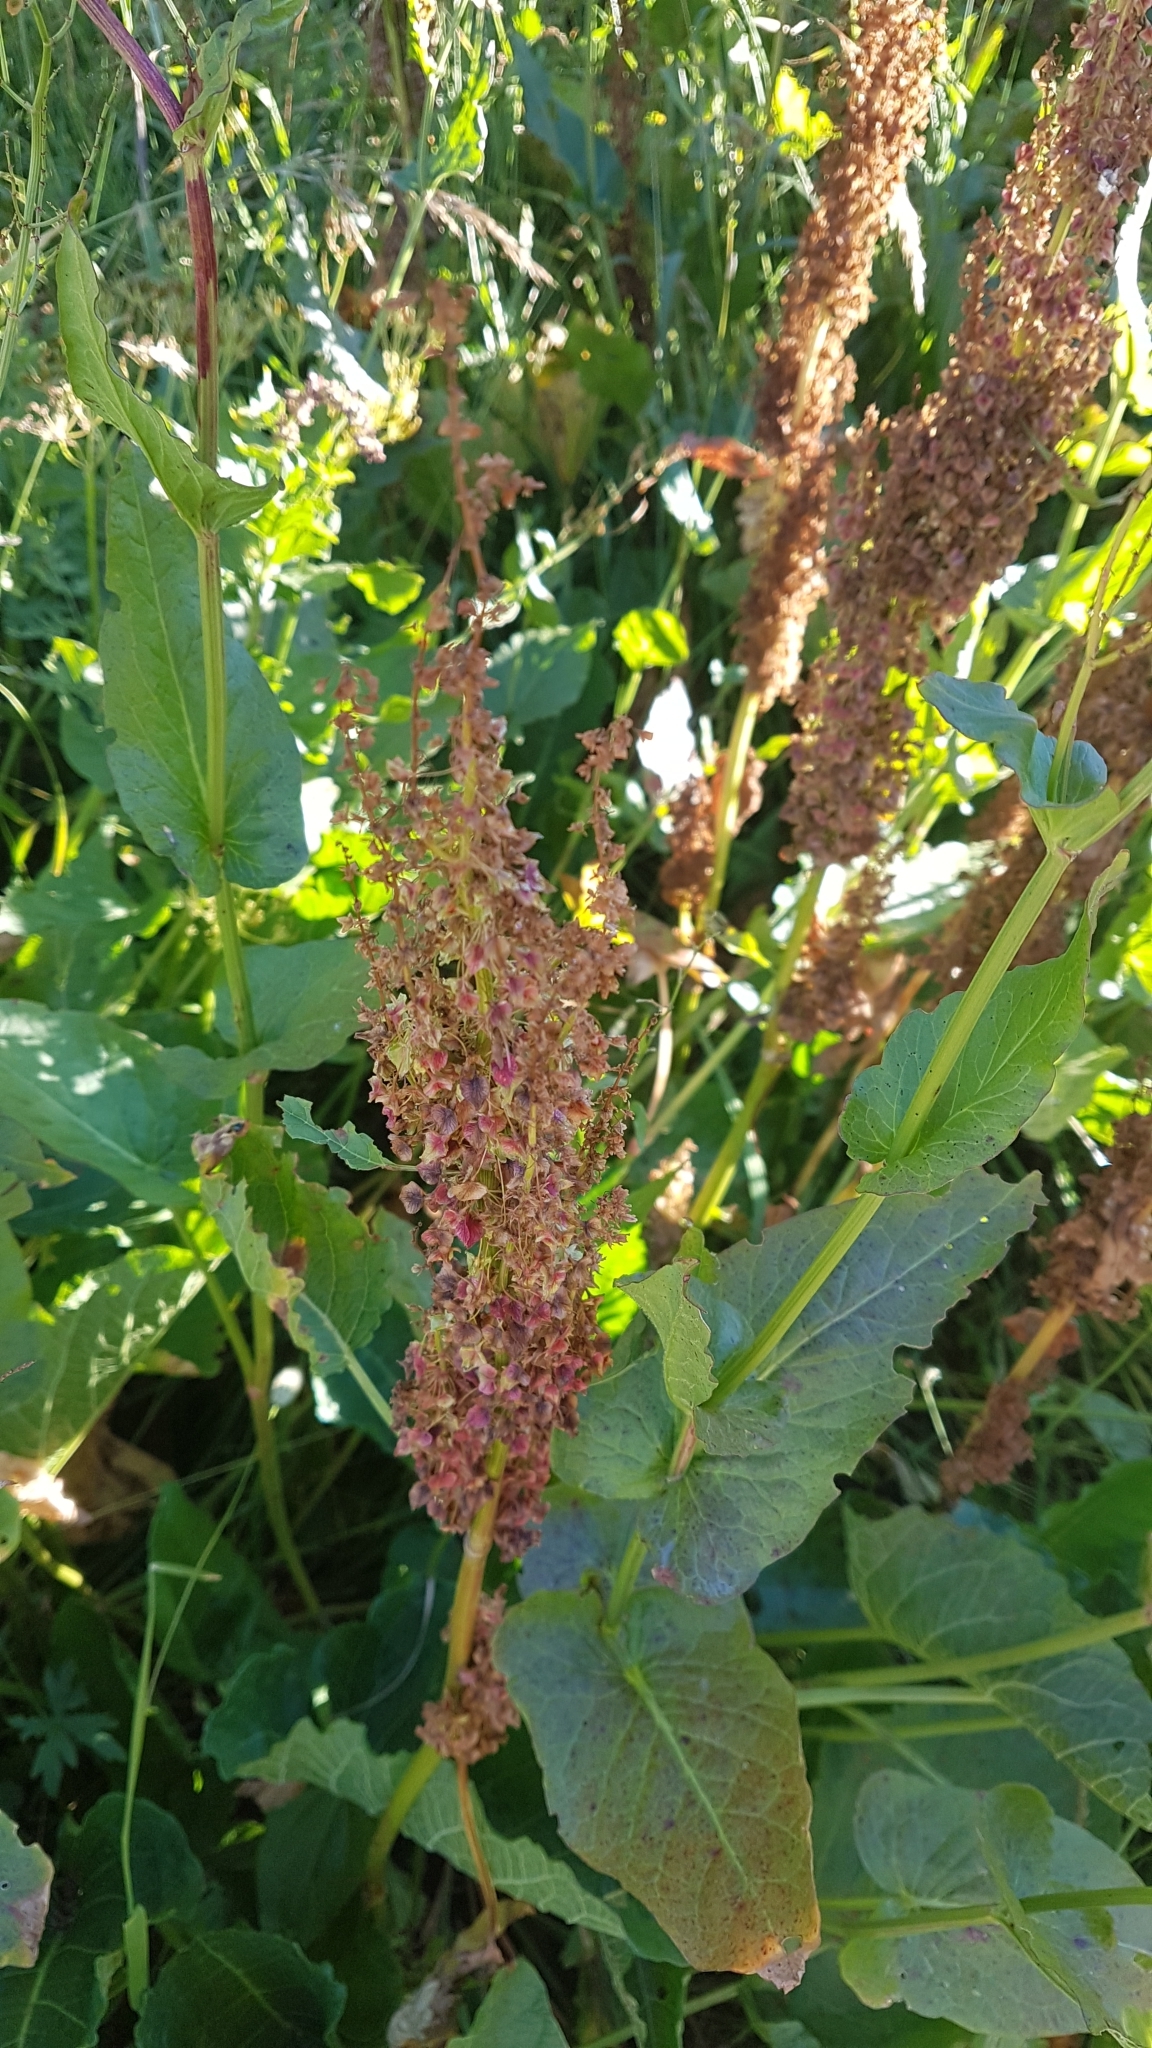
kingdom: Plantae
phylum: Tracheophyta
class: Magnoliopsida
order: Caryophyllales
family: Polygonaceae
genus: Rumex
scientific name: Rumex arifolius
